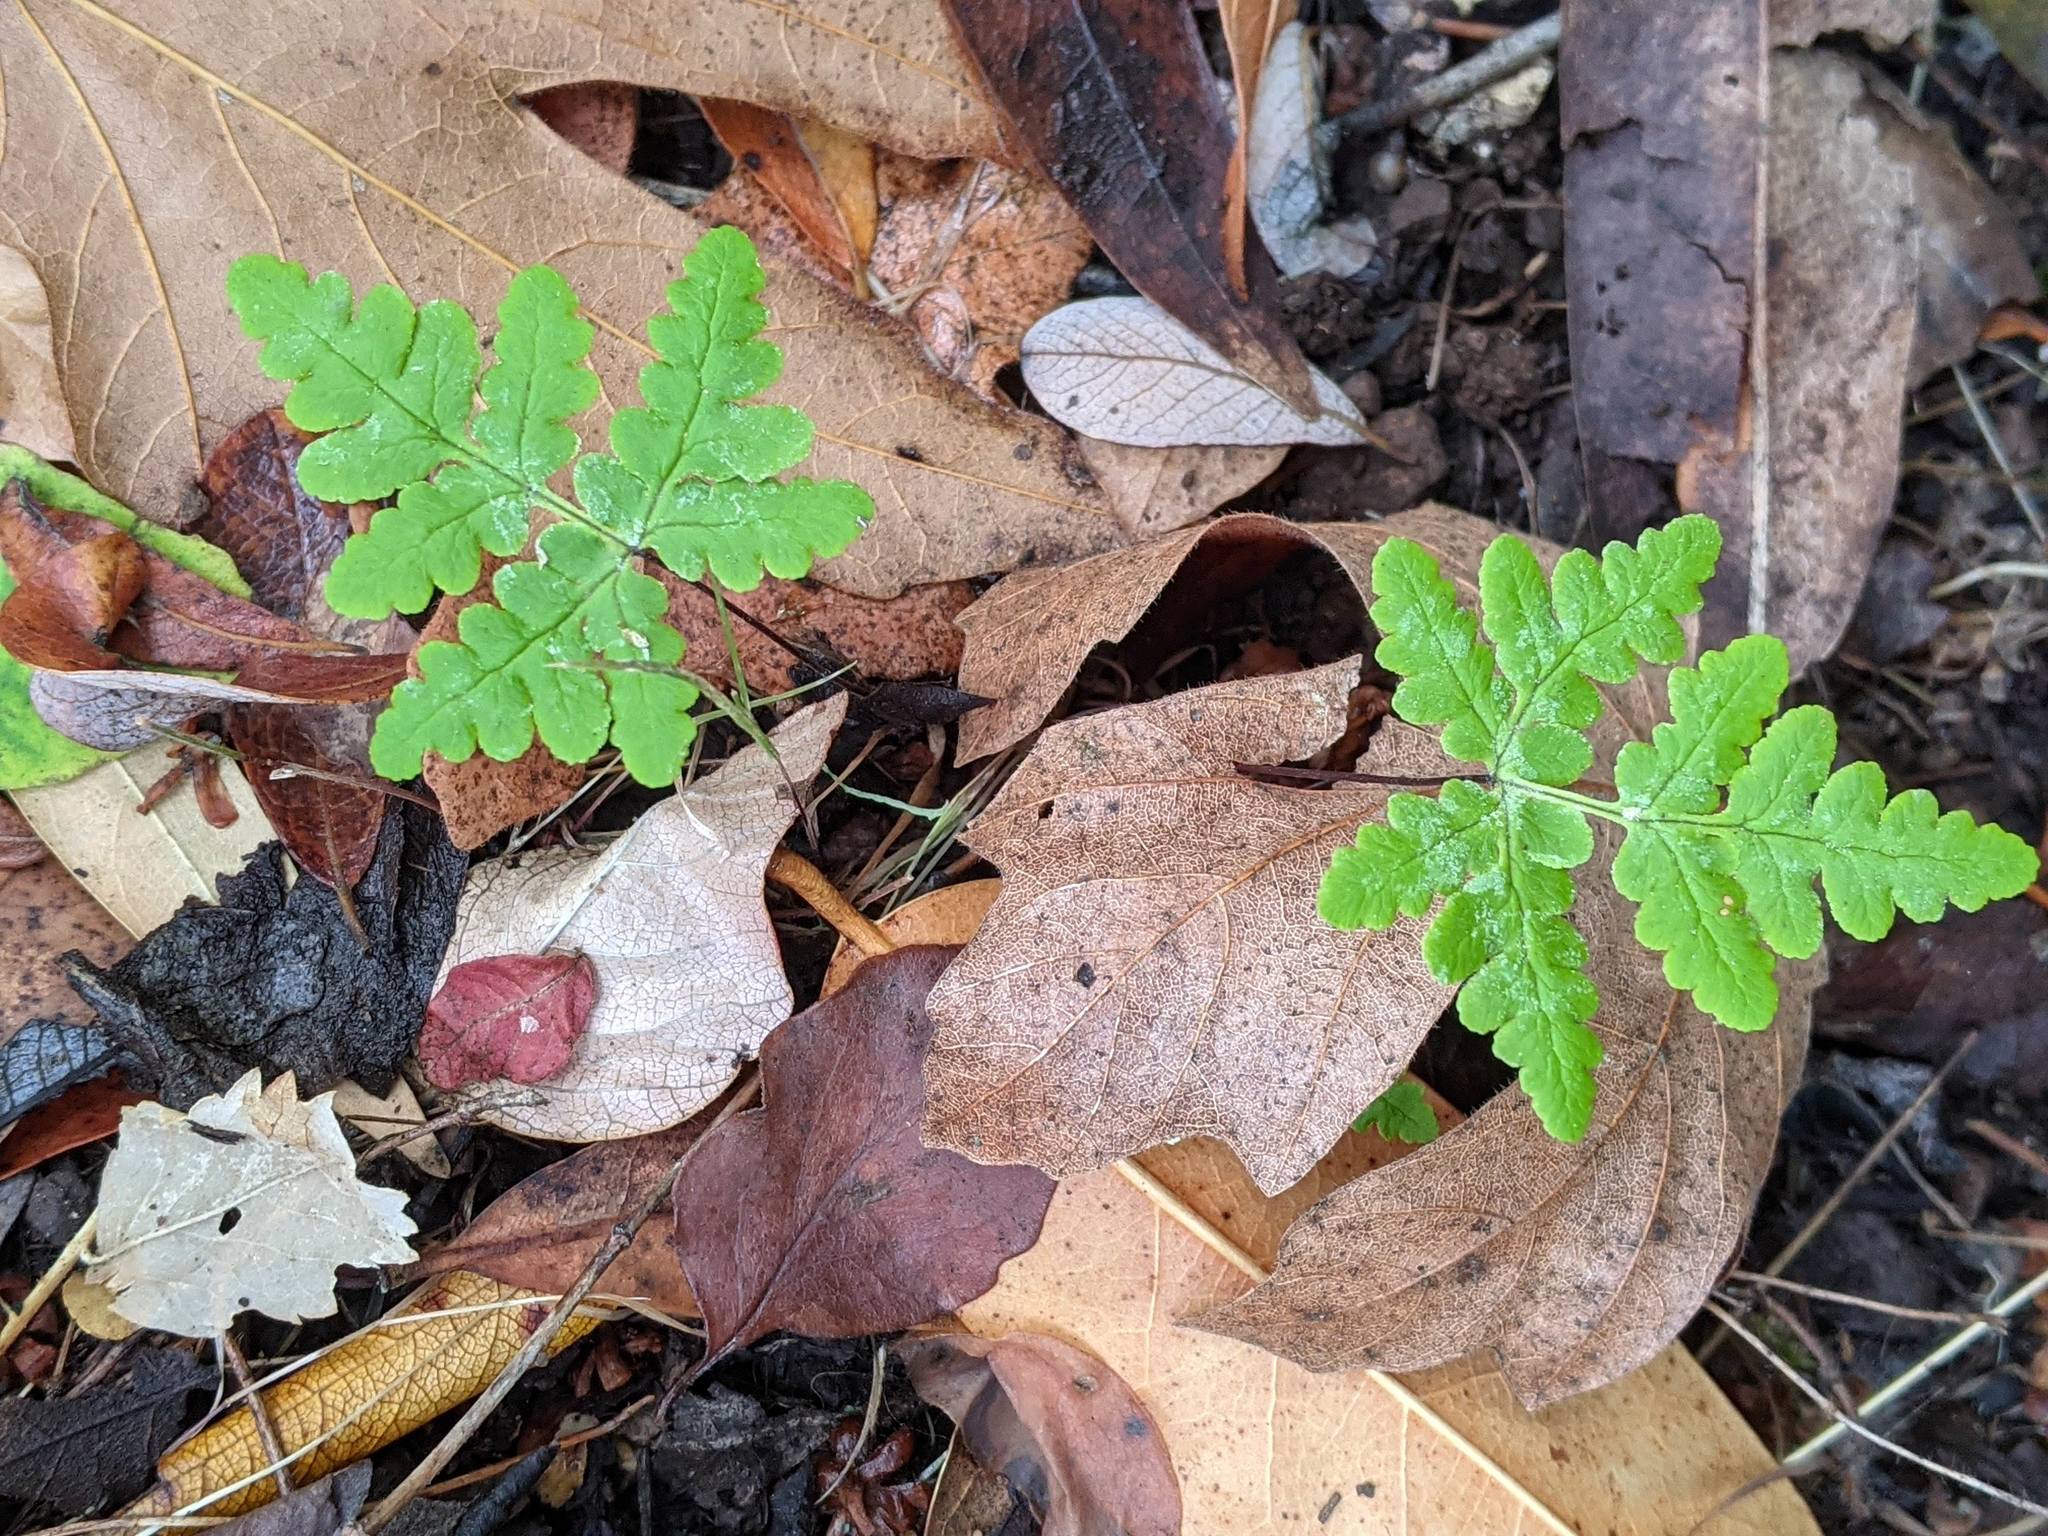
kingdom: Plantae
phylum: Tracheophyta
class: Polypodiopsida
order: Polypodiales
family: Pteridaceae
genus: Pentagramma
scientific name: Pentagramma triangularis
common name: Gold fern
